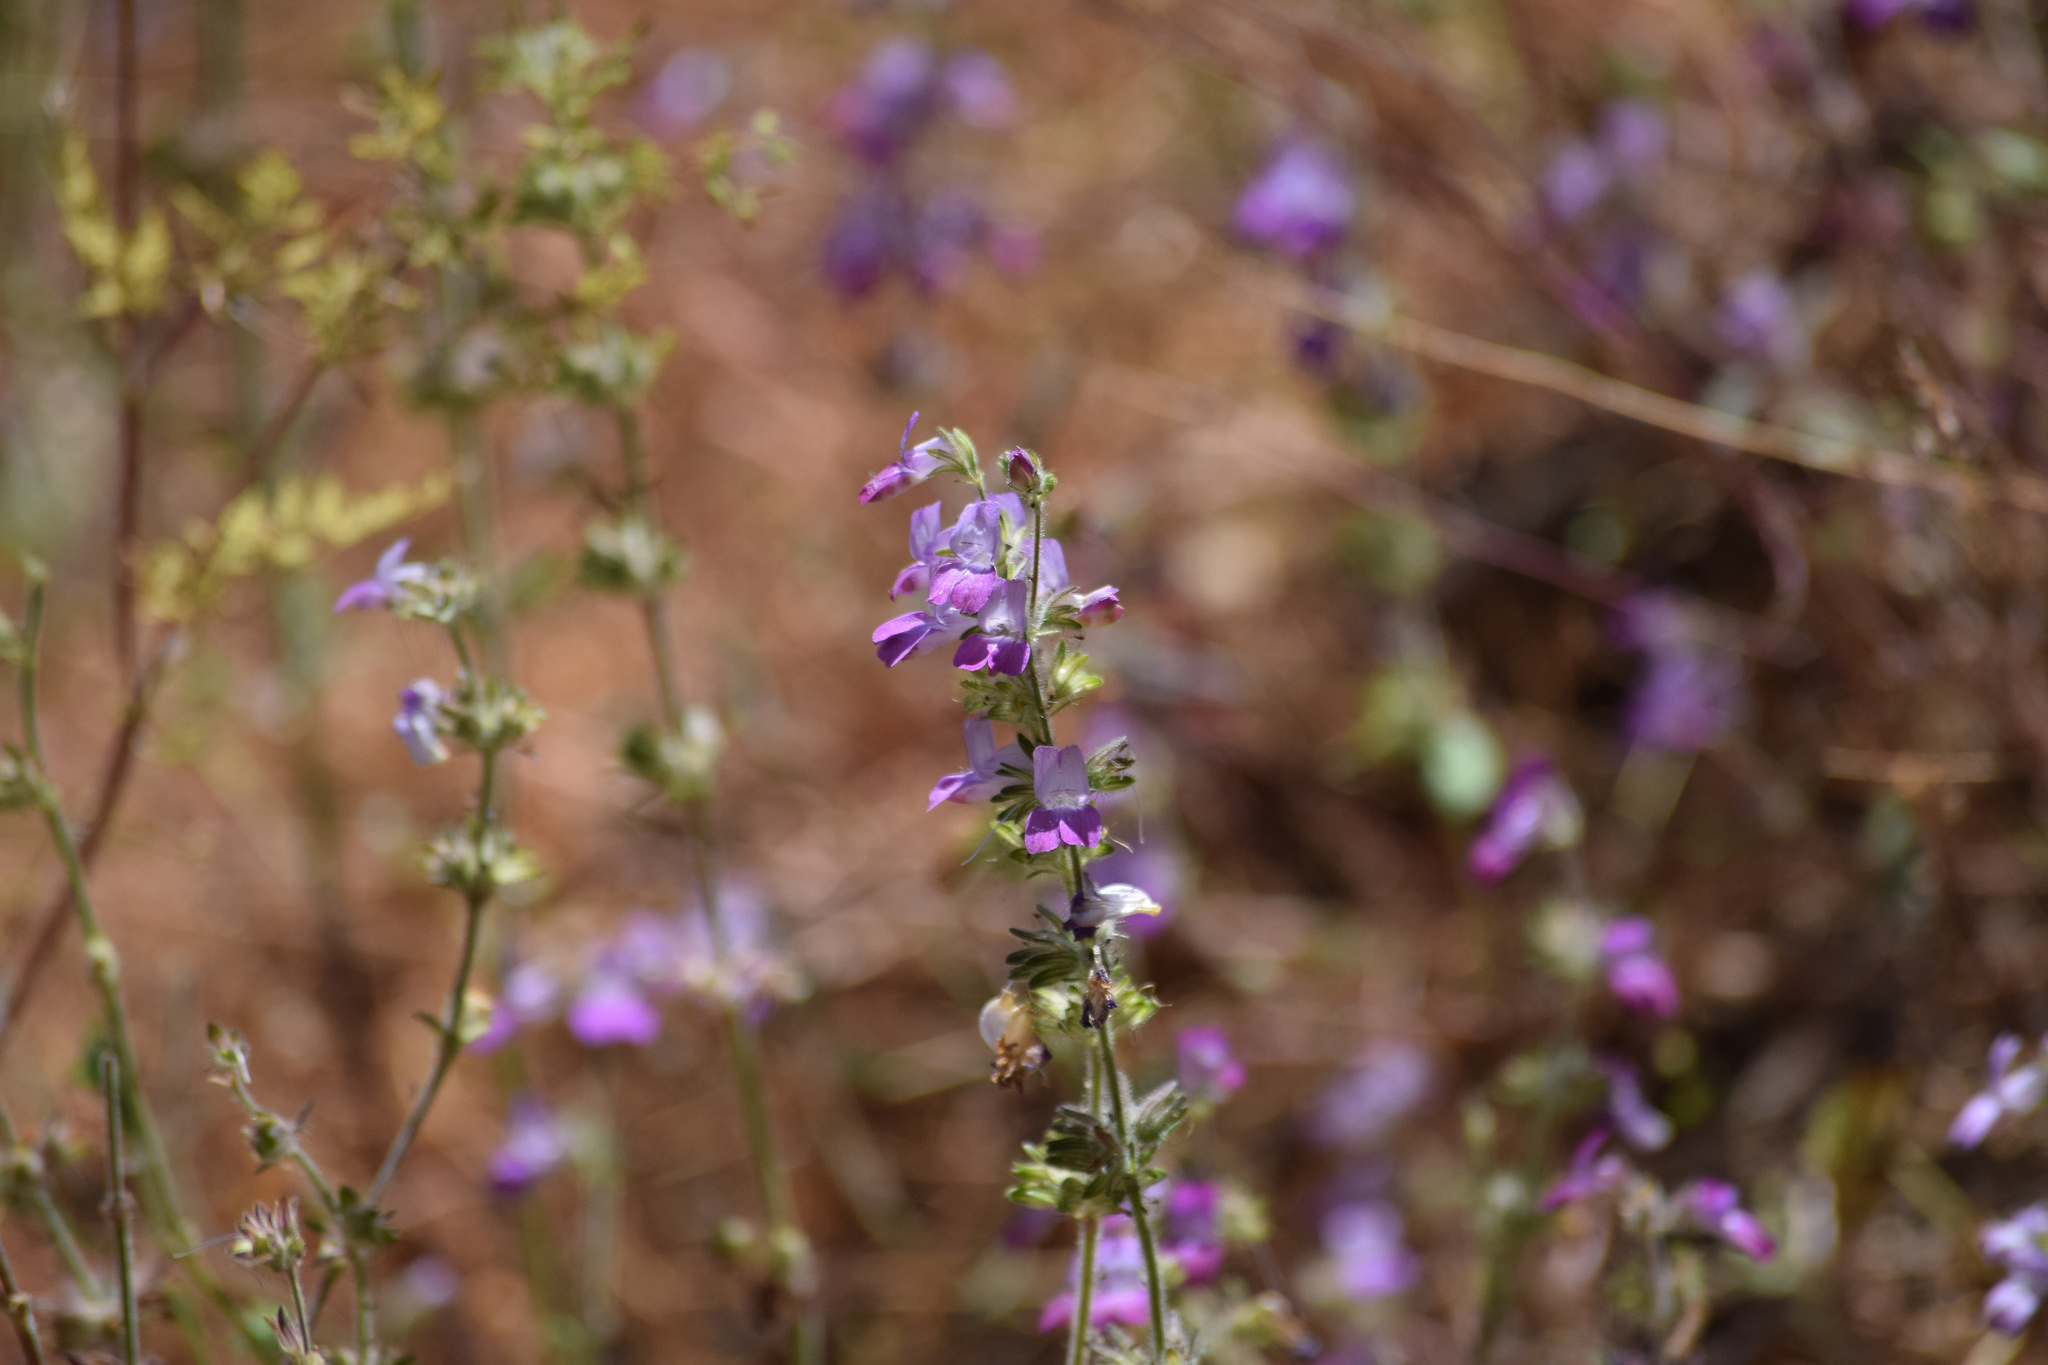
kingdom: Plantae
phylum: Tracheophyta
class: Magnoliopsida
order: Lamiales
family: Plantaginaceae
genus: Collinsia
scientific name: Collinsia heterophylla
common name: Chinese-houses
